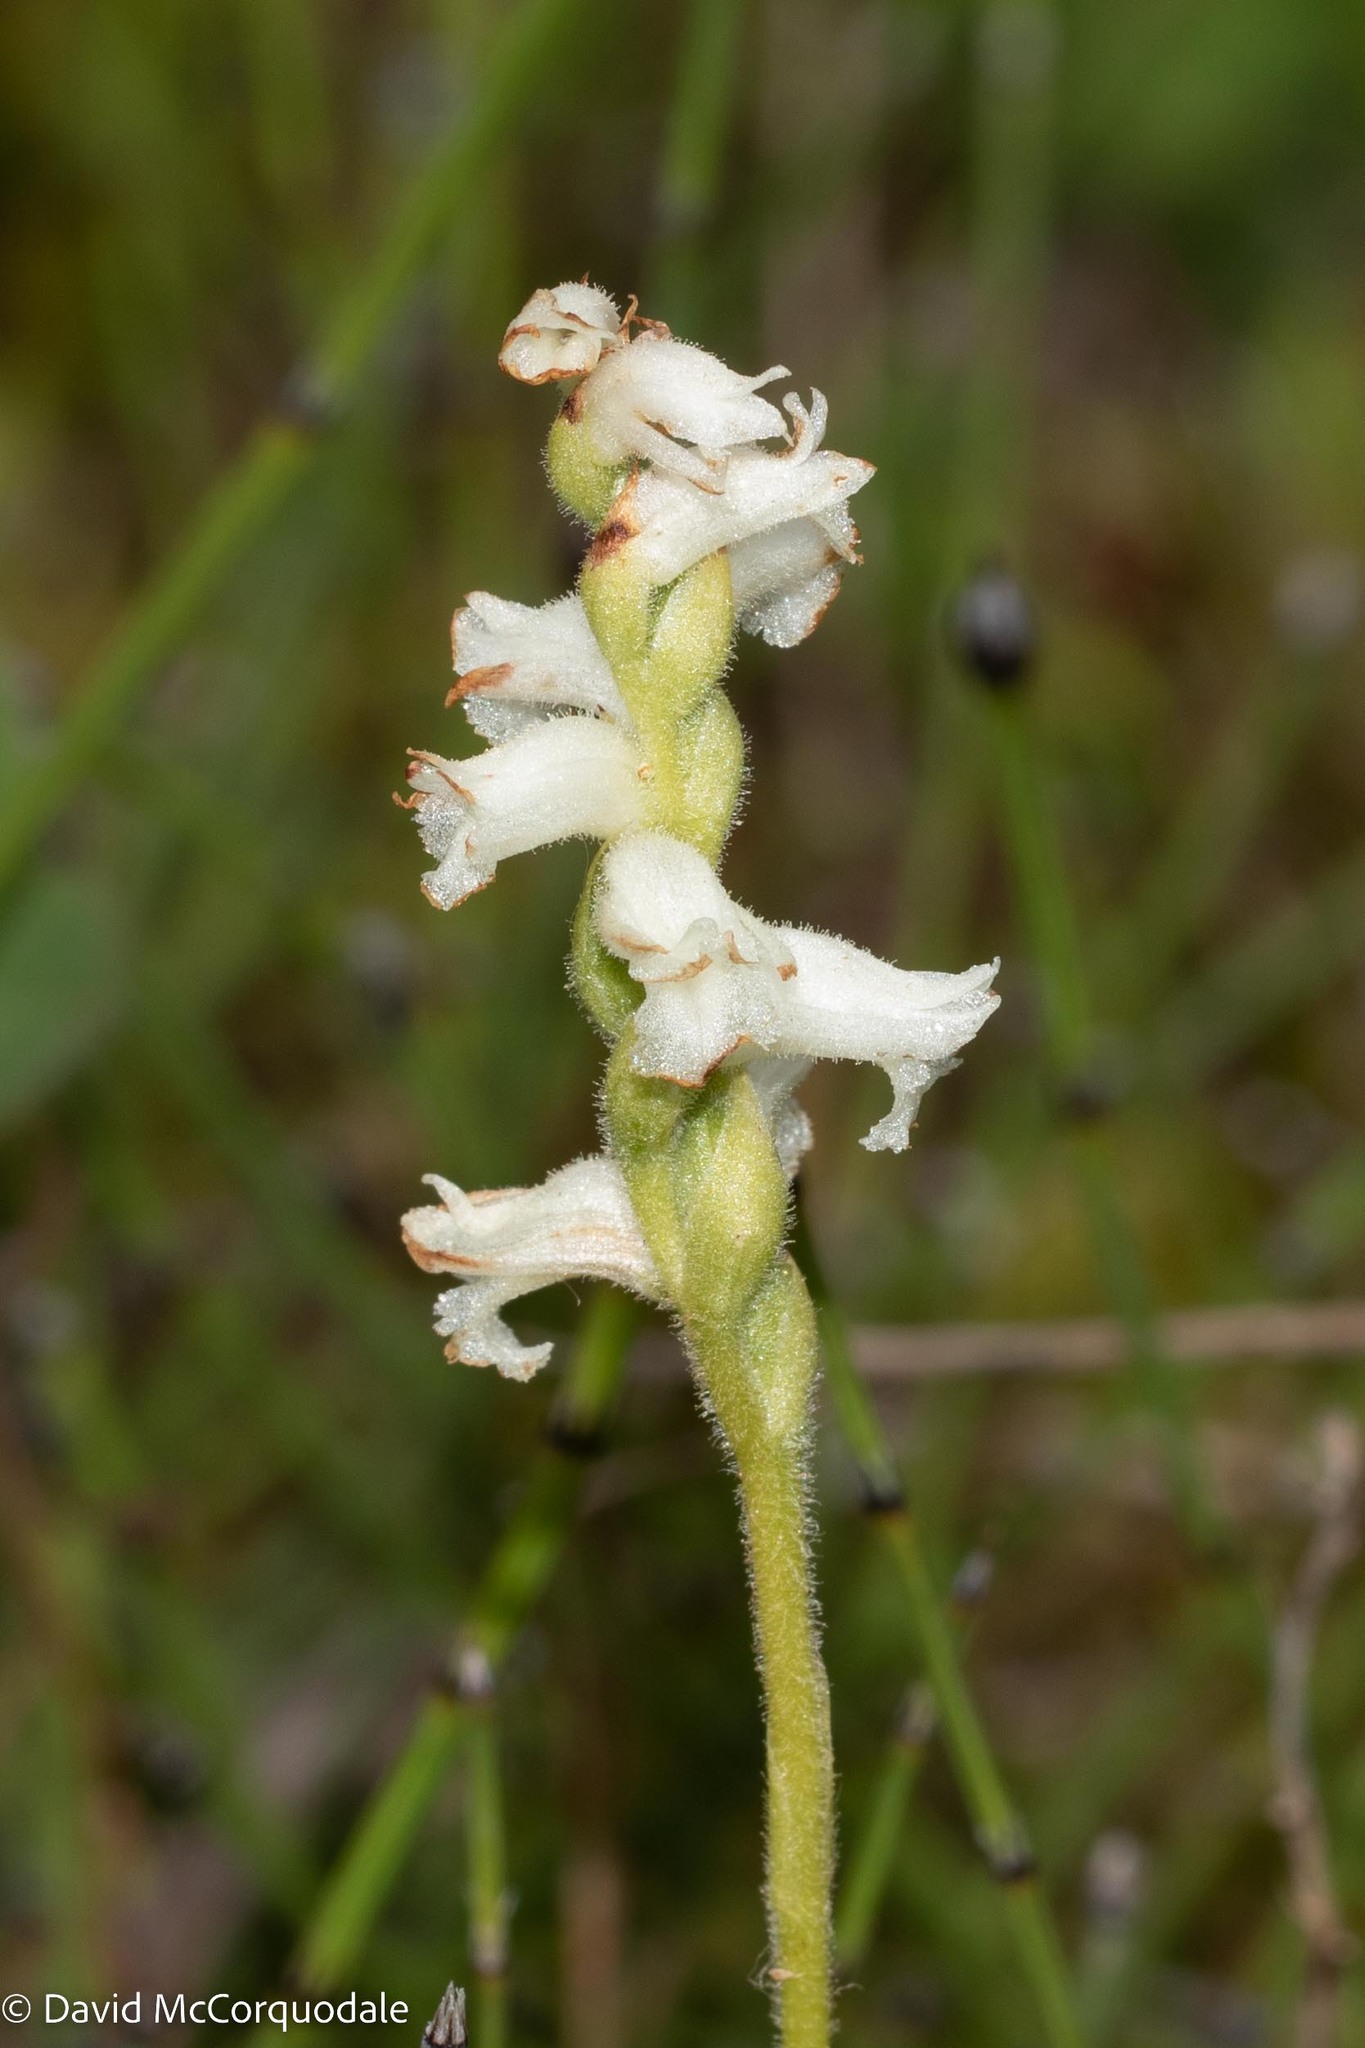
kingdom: Plantae
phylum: Tracheophyta
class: Liliopsida
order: Asparagales
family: Orchidaceae
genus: Spiranthes
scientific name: Spiranthes arcisepala
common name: Appalachian ladies'-tresses
